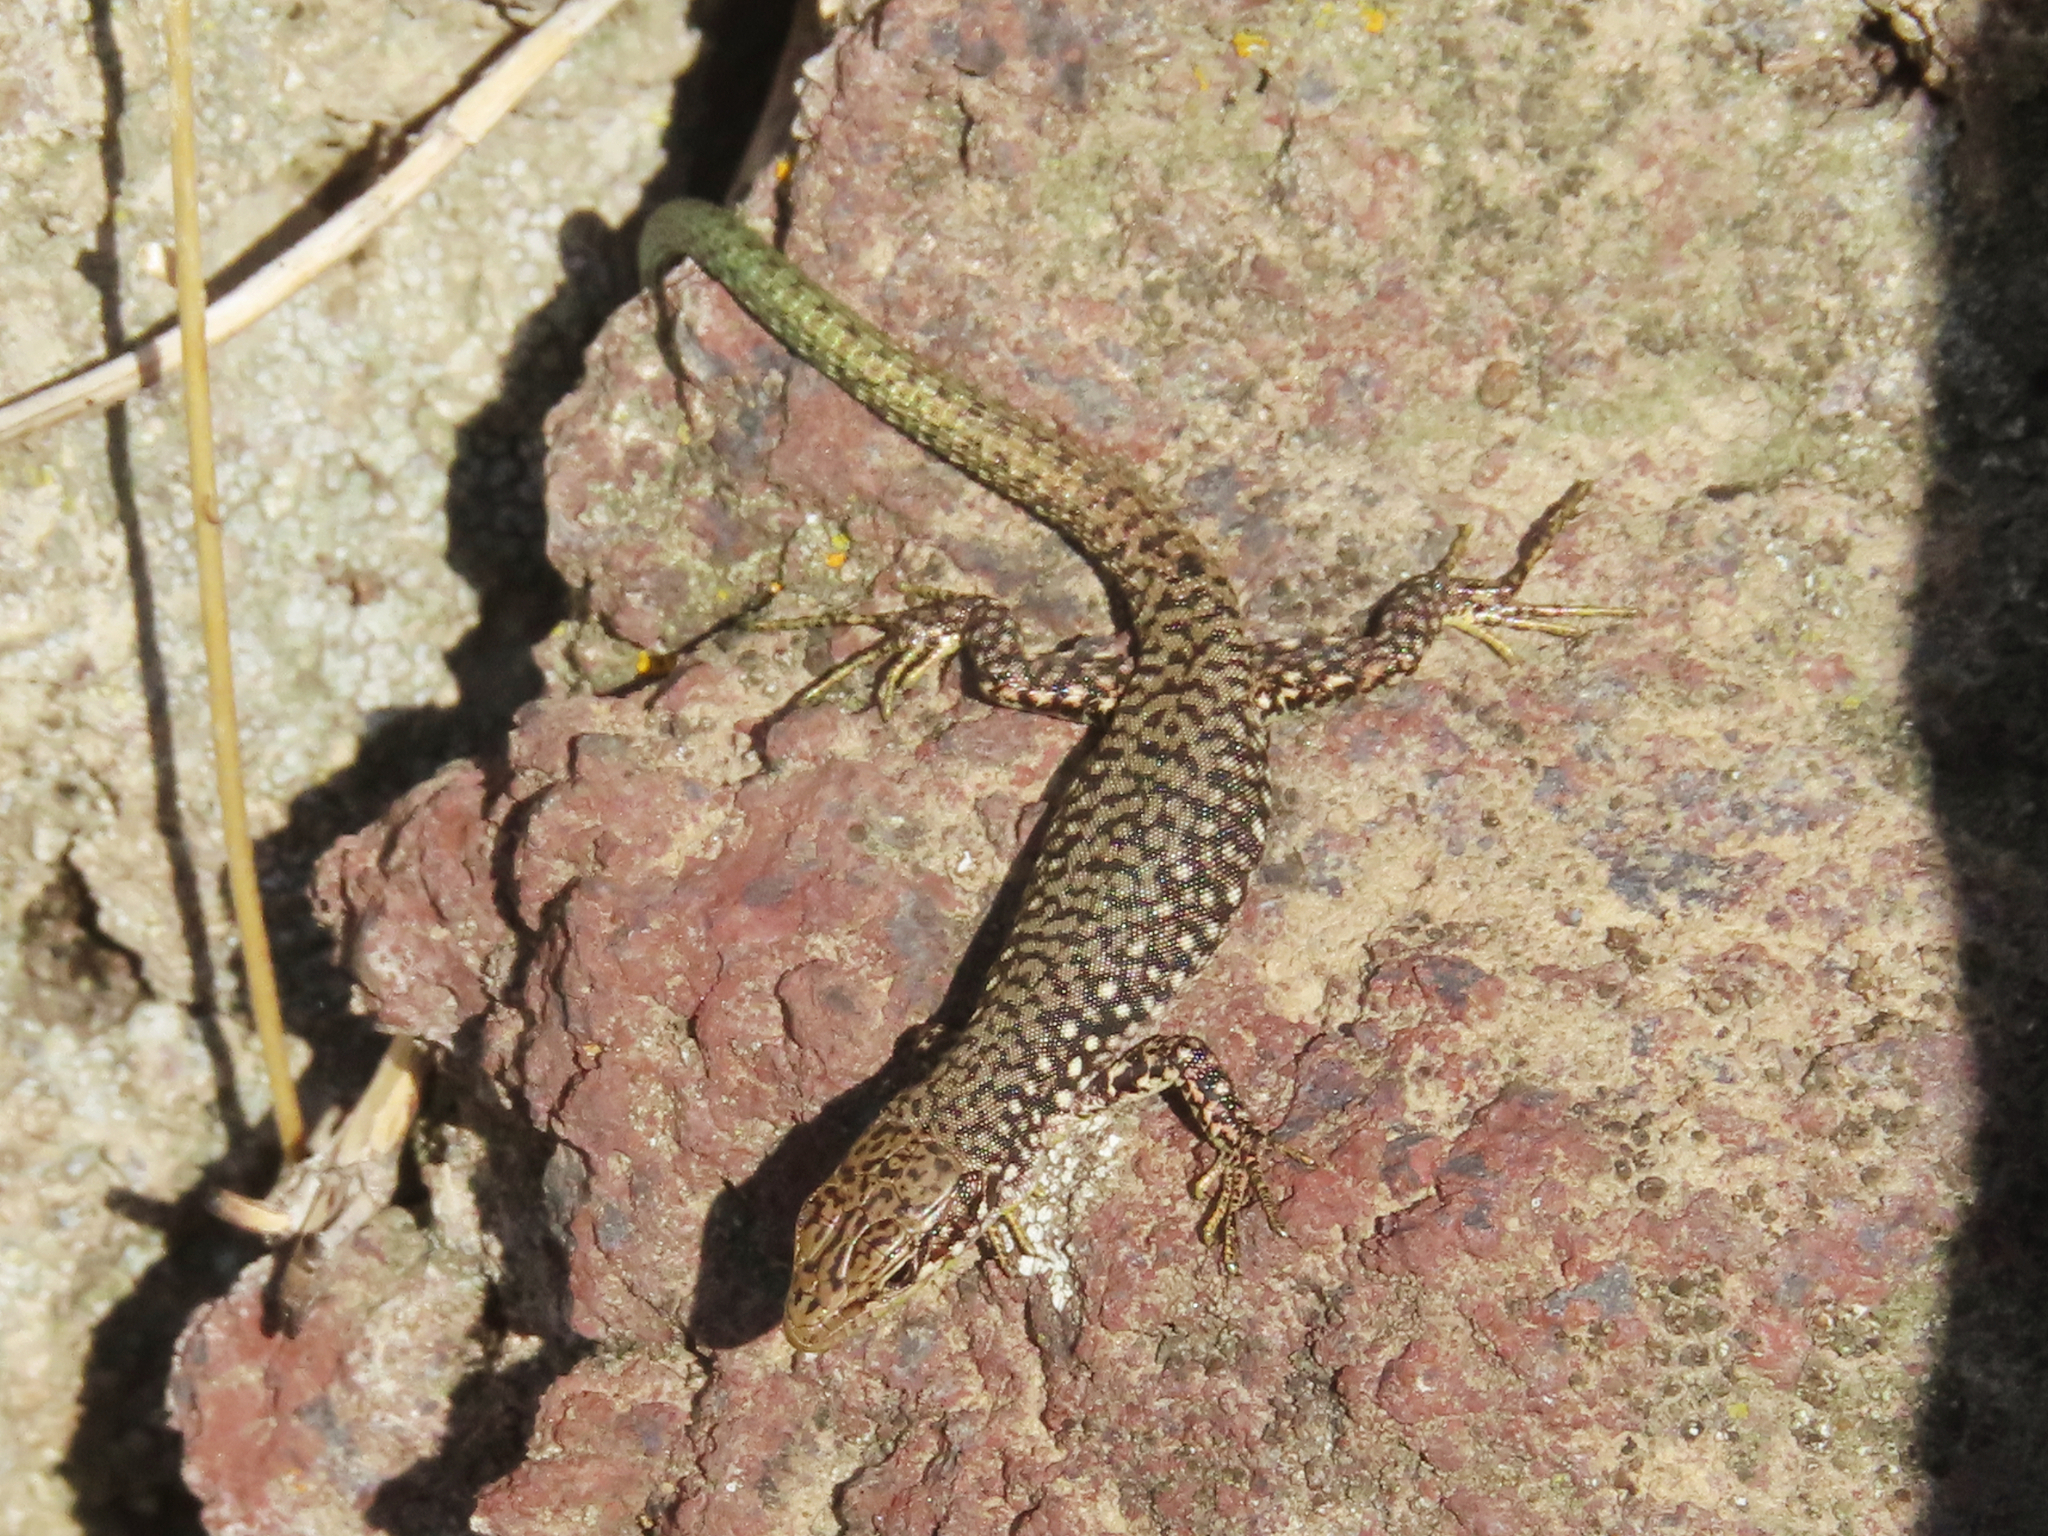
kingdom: Animalia
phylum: Chordata
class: Squamata
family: Lacertidae
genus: Darevskia
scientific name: Darevskia
